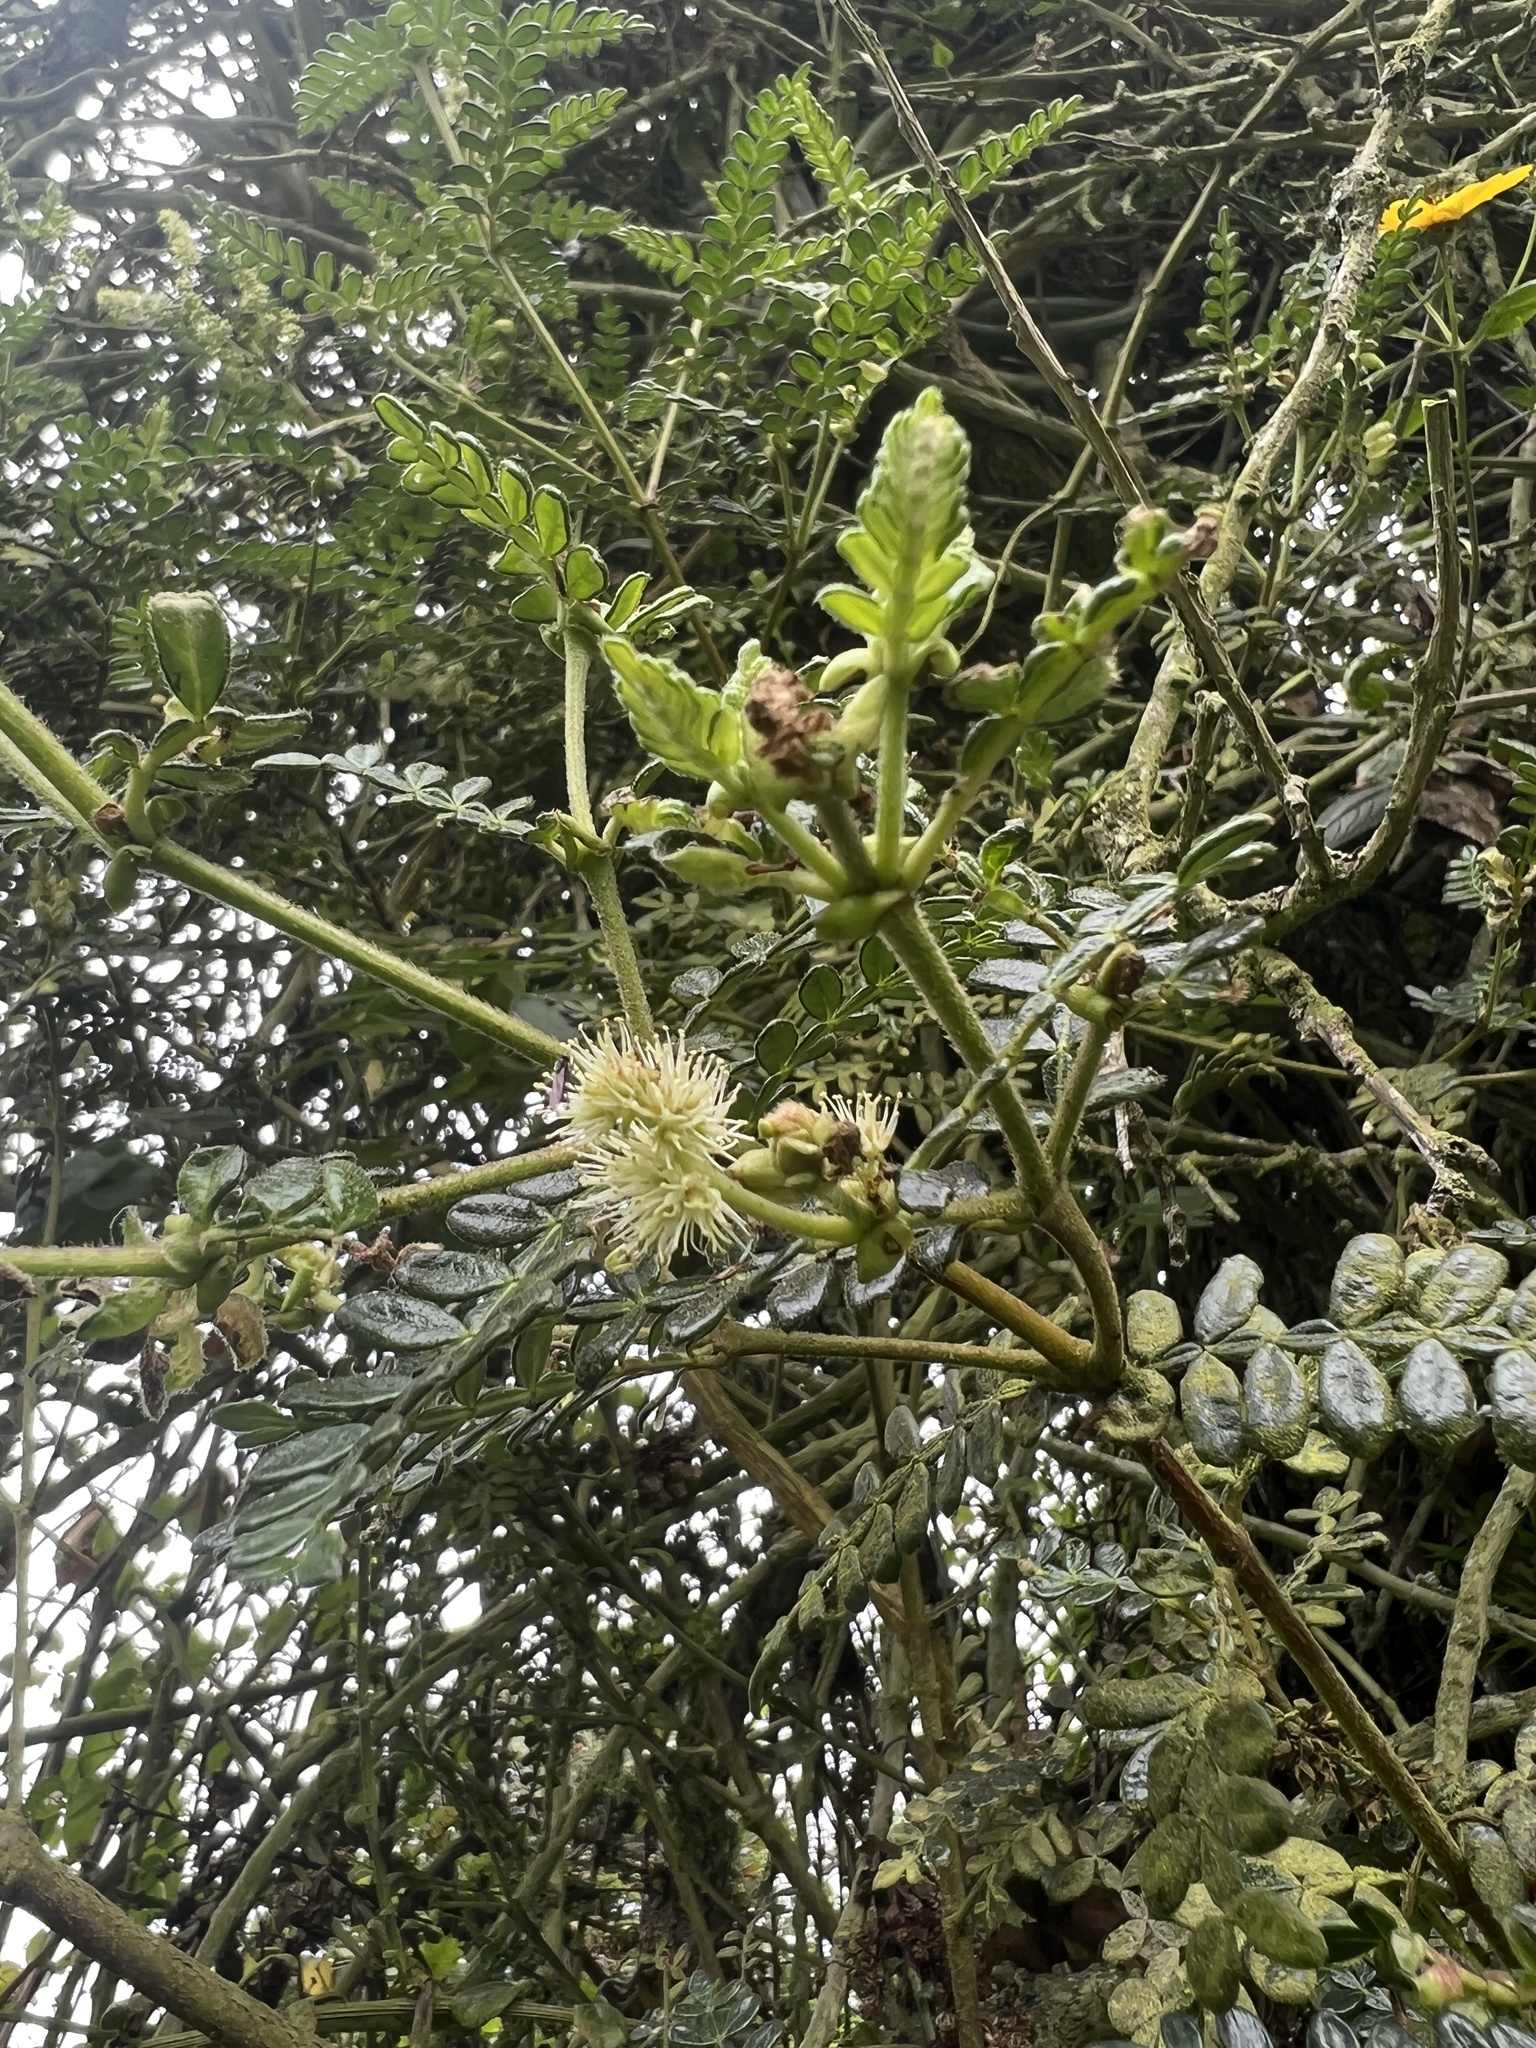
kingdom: Plantae
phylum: Tracheophyta
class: Magnoliopsida
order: Oxalidales
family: Cunoniaceae
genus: Weinmannia
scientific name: Weinmannia tomentosa
